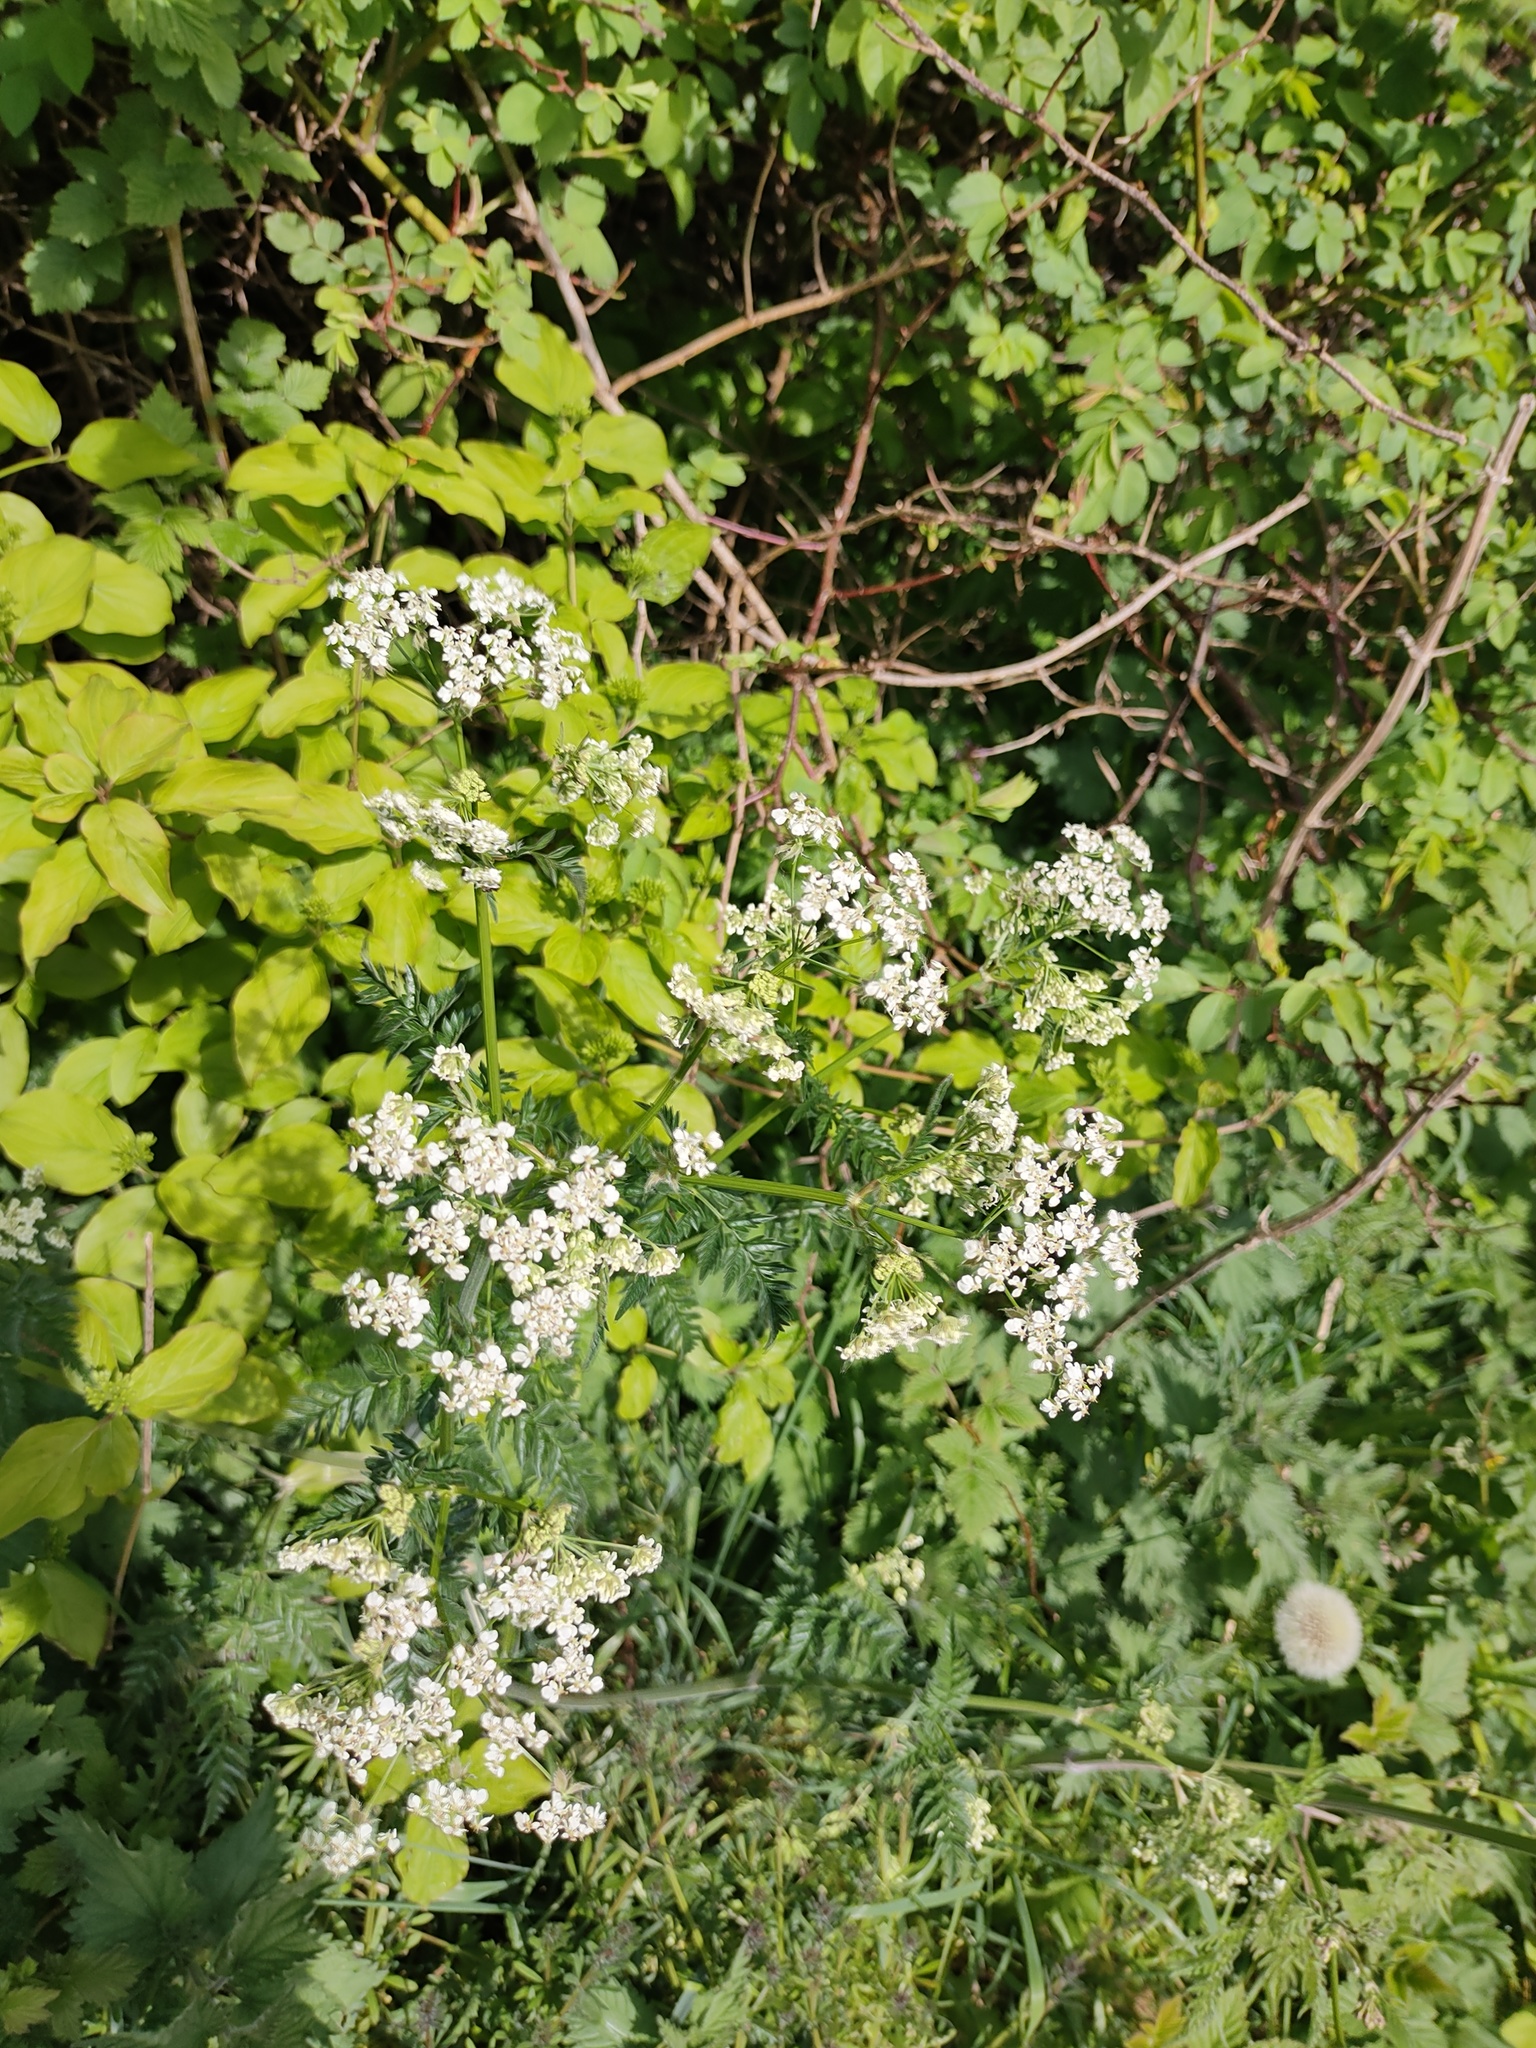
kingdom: Plantae
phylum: Tracheophyta
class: Magnoliopsida
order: Apiales
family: Apiaceae
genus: Anthriscus
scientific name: Anthriscus sylvestris
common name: Cow parsley
